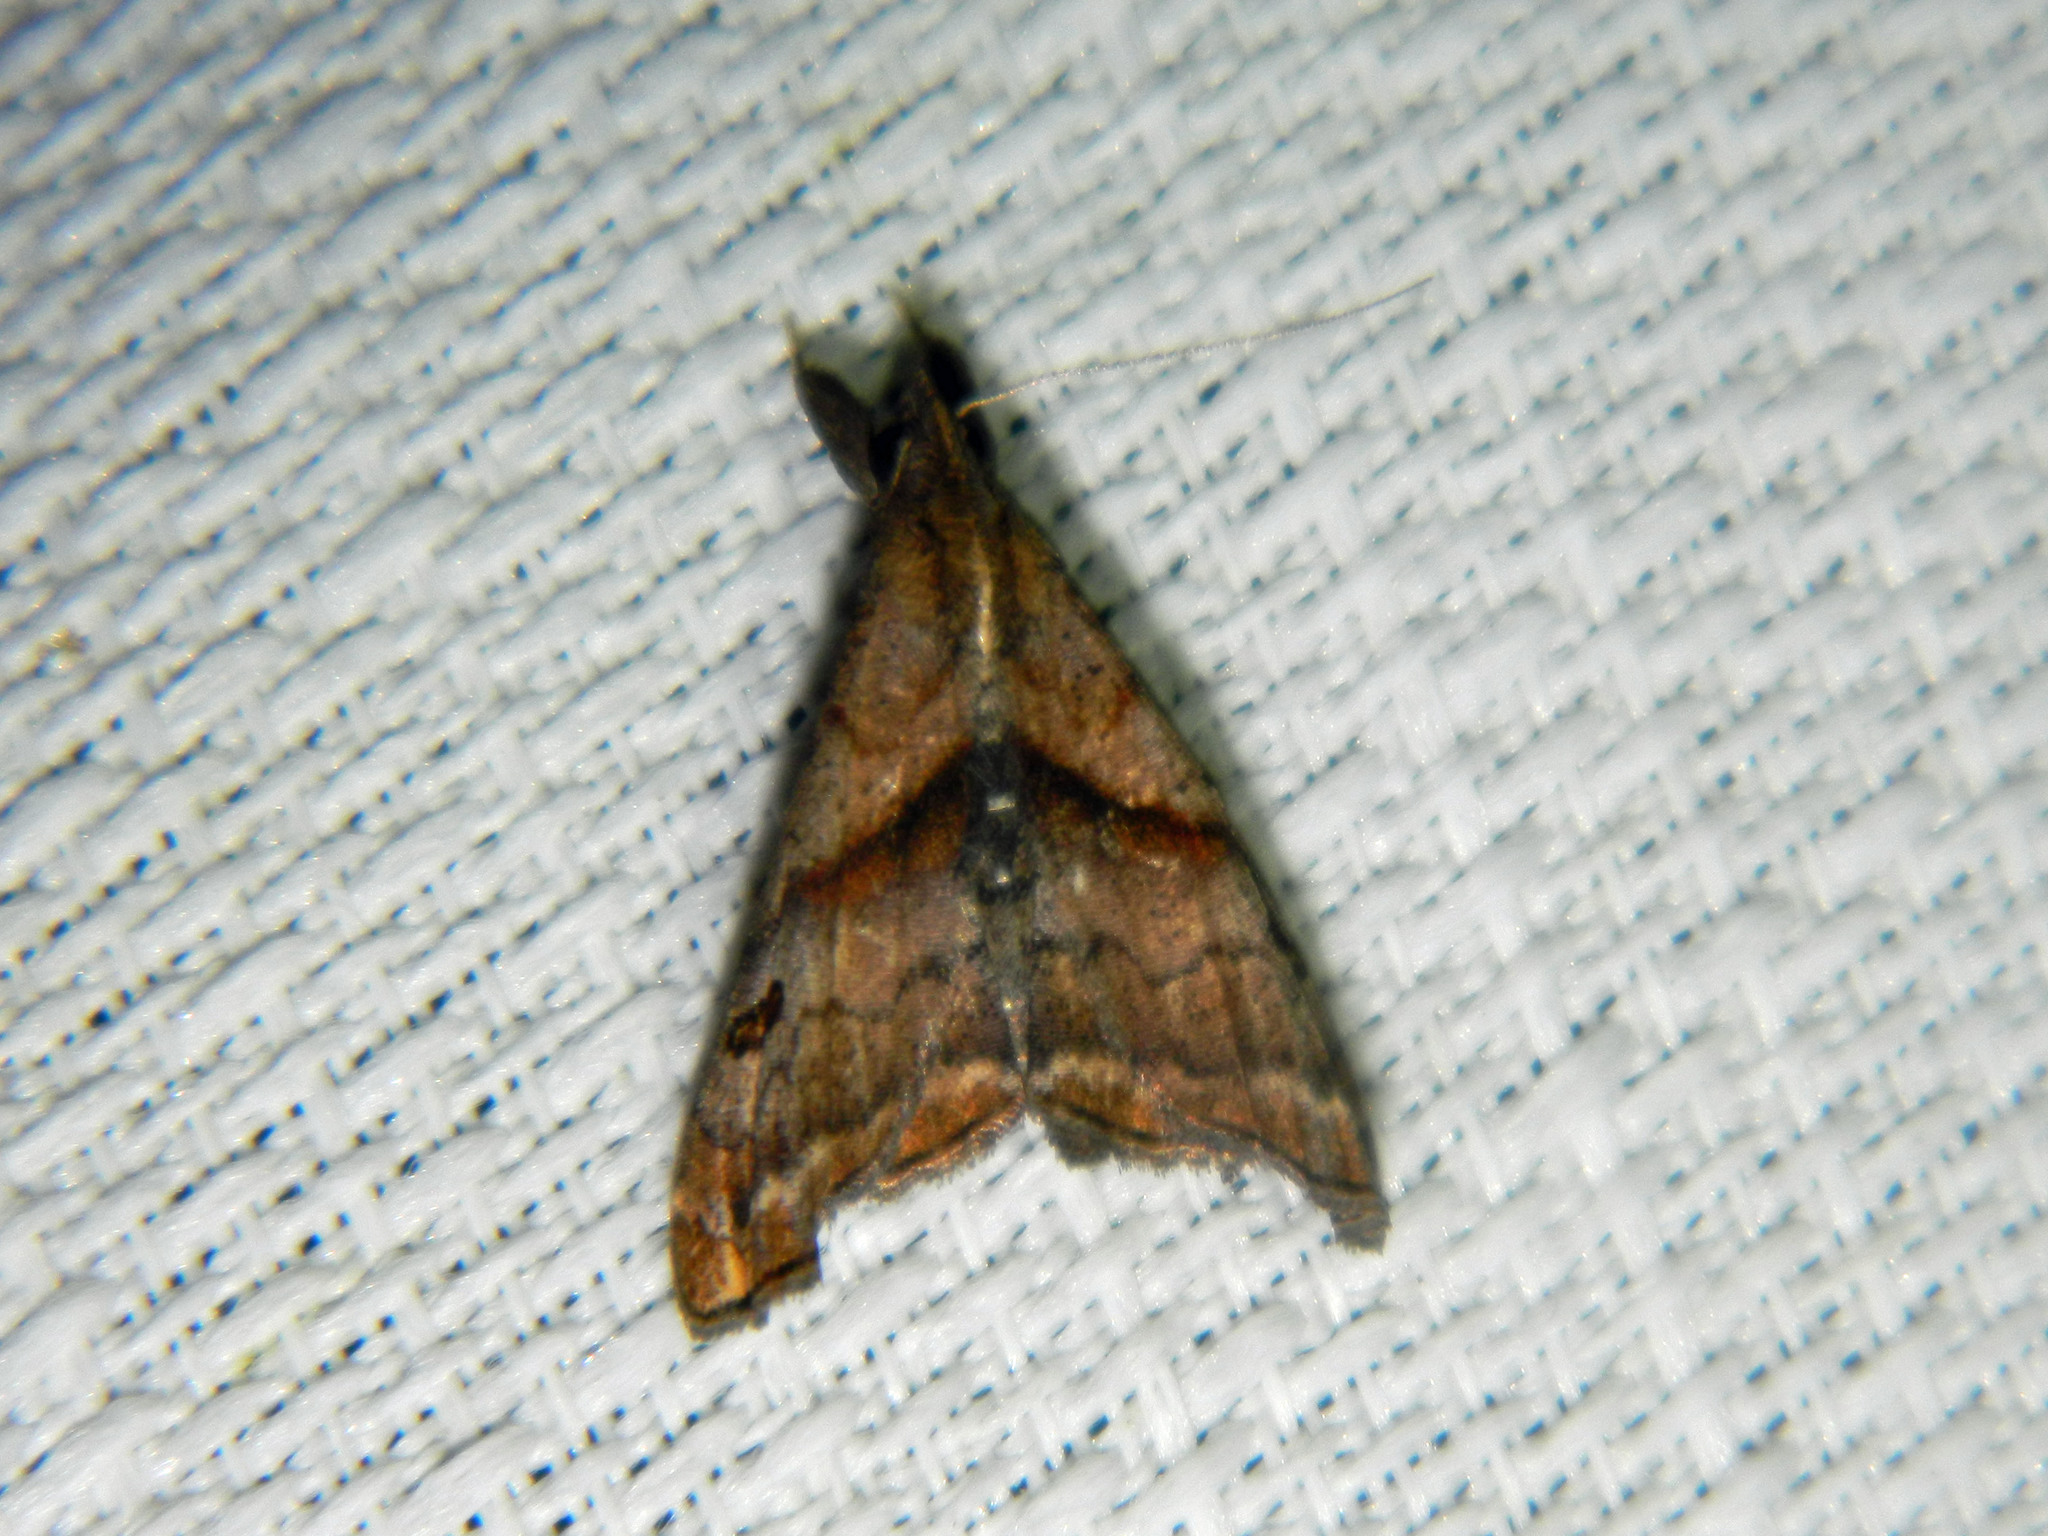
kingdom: Animalia
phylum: Arthropoda
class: Insecta
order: Lepidoptera
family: Erebidae
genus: Palthis
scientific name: Palthis angulalis
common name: Dark-spotted palthis moth
